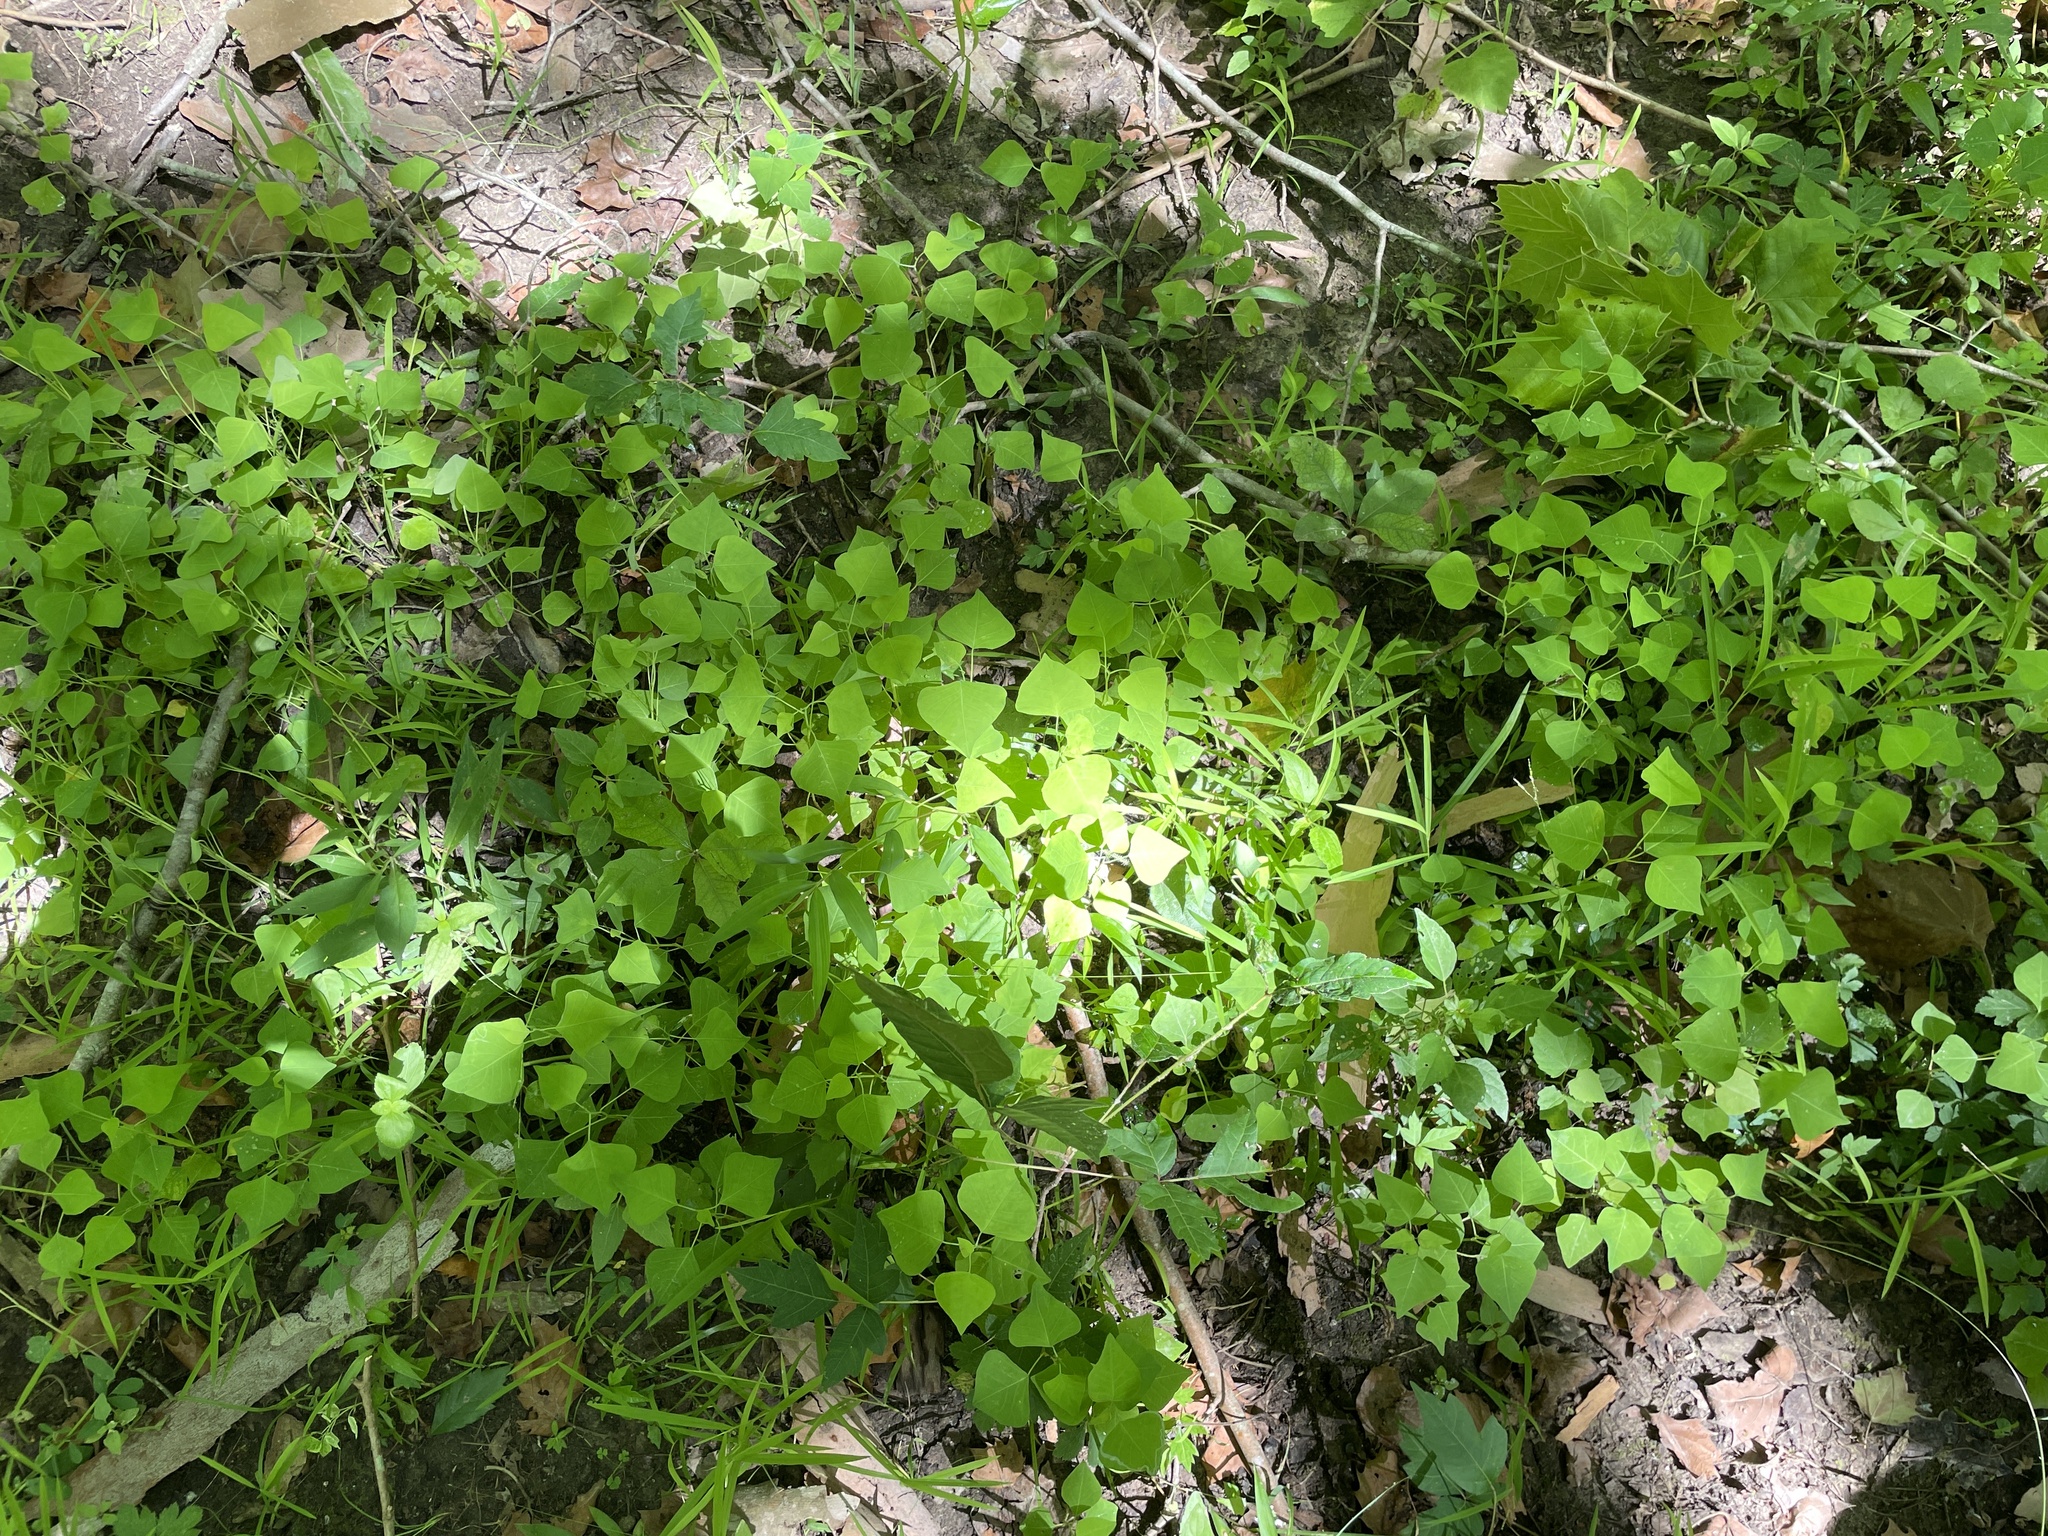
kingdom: Plantae
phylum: Tracheophyta
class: Magnoliopsida
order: Malpighiales
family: Euphorbiaceae
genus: Triadica
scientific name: Triadica sebifera
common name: Chinese tallow
